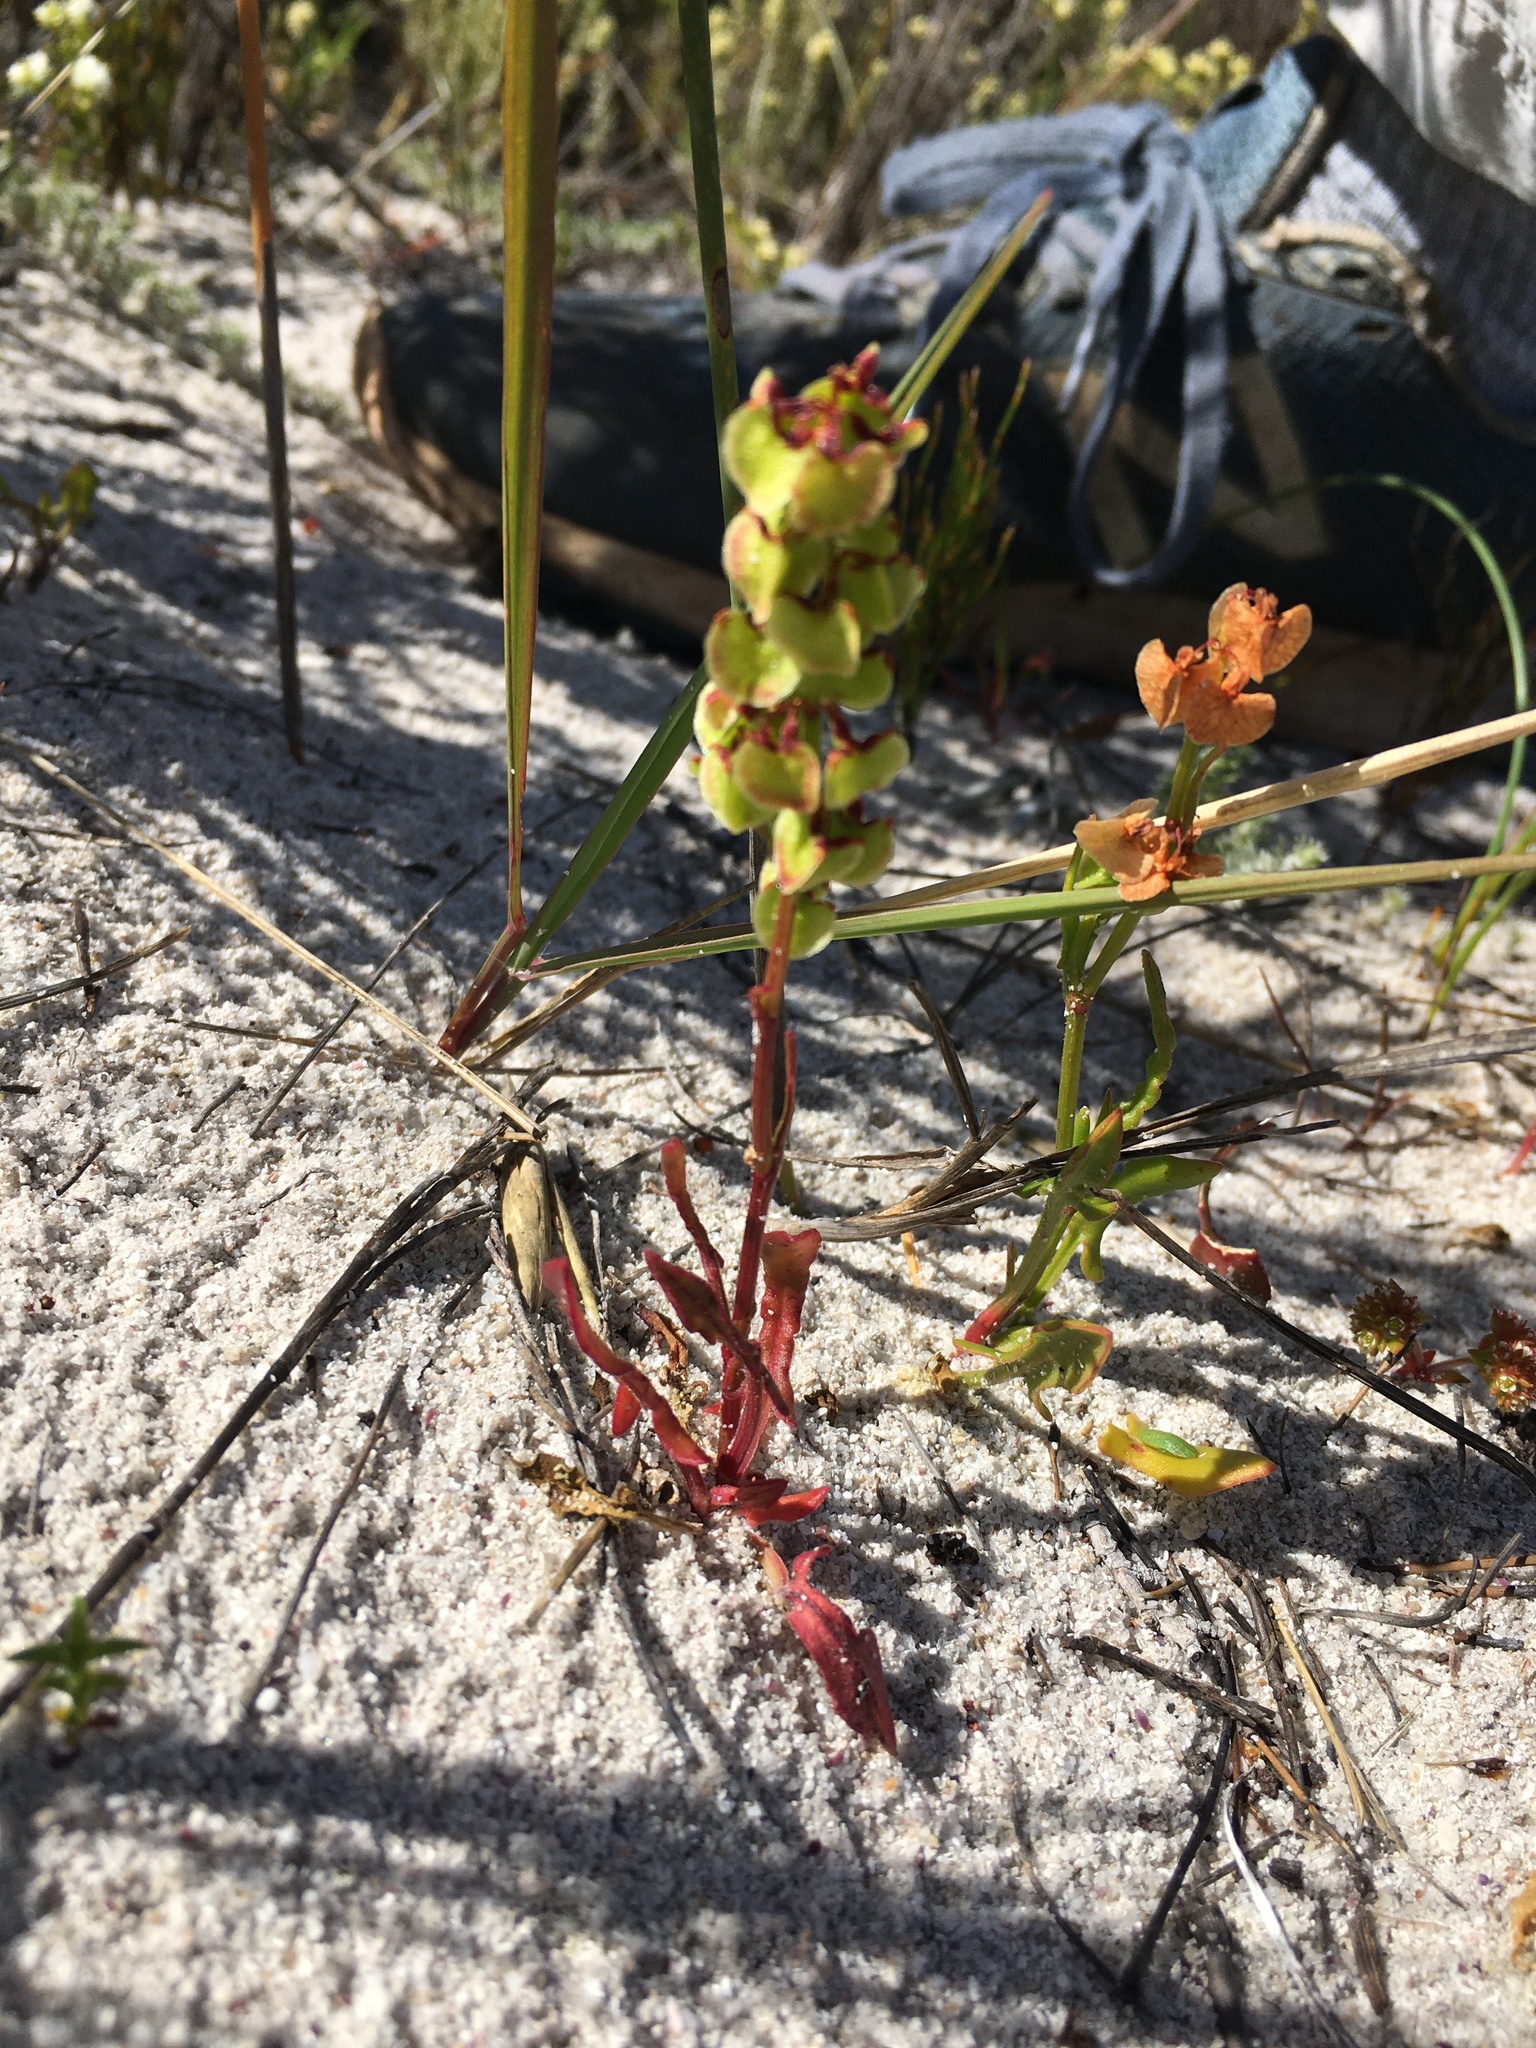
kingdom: Plantae
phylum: Tracheophyta
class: Magnoliopsida
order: Caryophyllales
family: Polygonaceae
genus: Rumex
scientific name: Rumex cordatus
